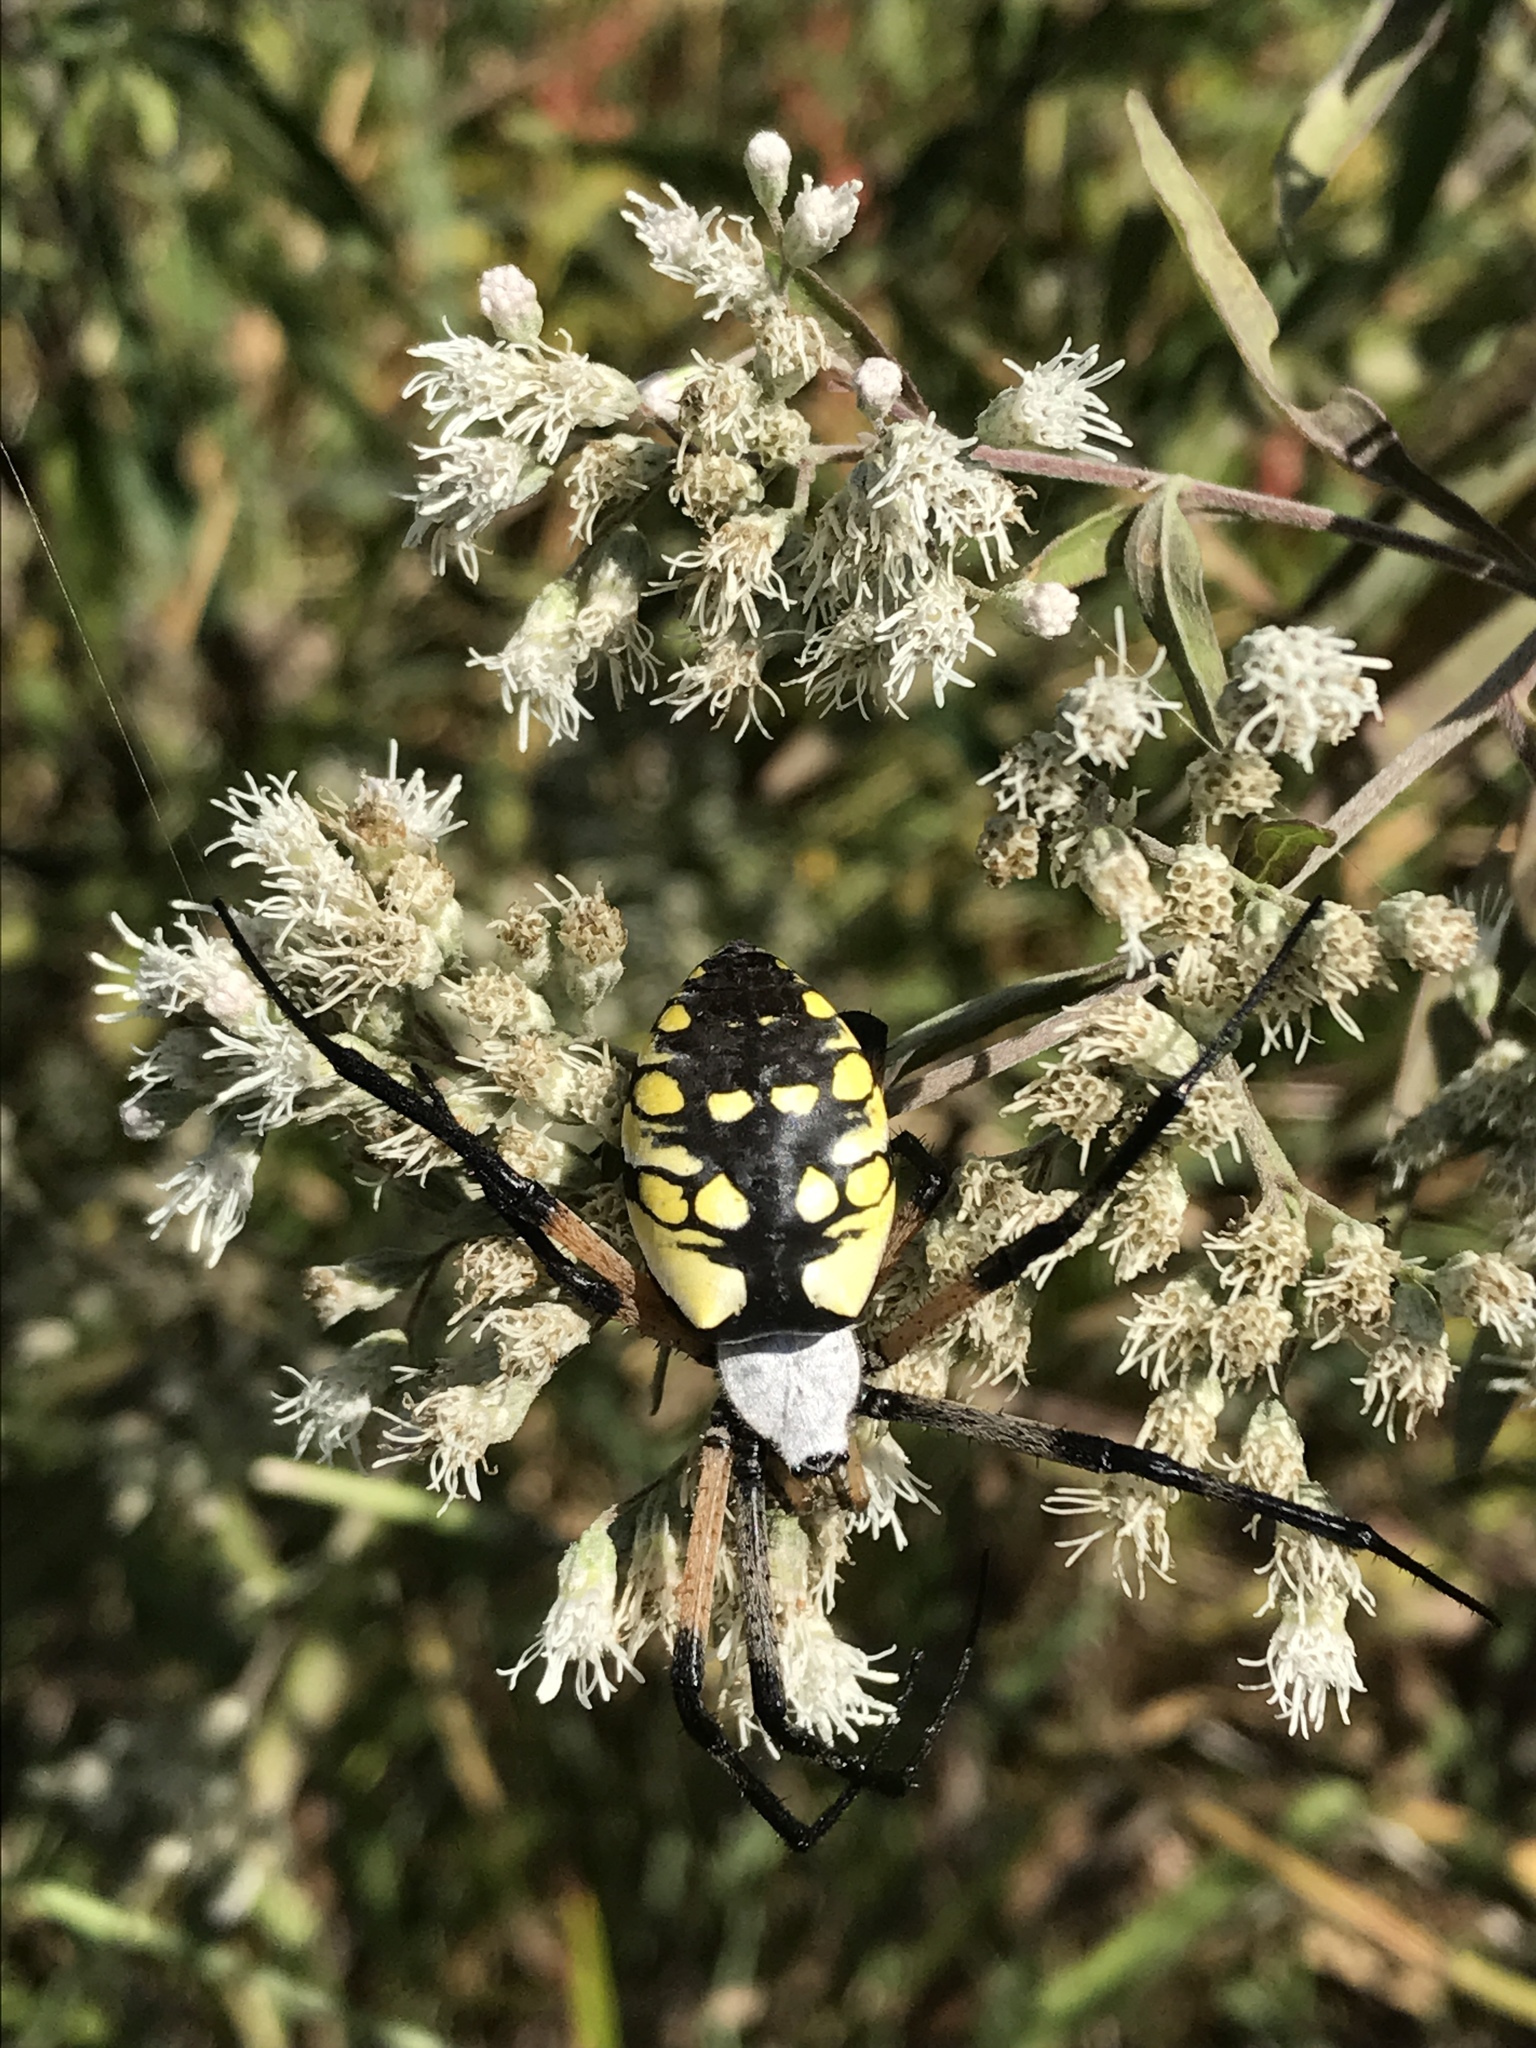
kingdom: Animalia
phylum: Arthropoda
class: Arachnida
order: Araneae
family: Araneidae
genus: Argiope
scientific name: Argiope aurantia
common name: Orb weavers
